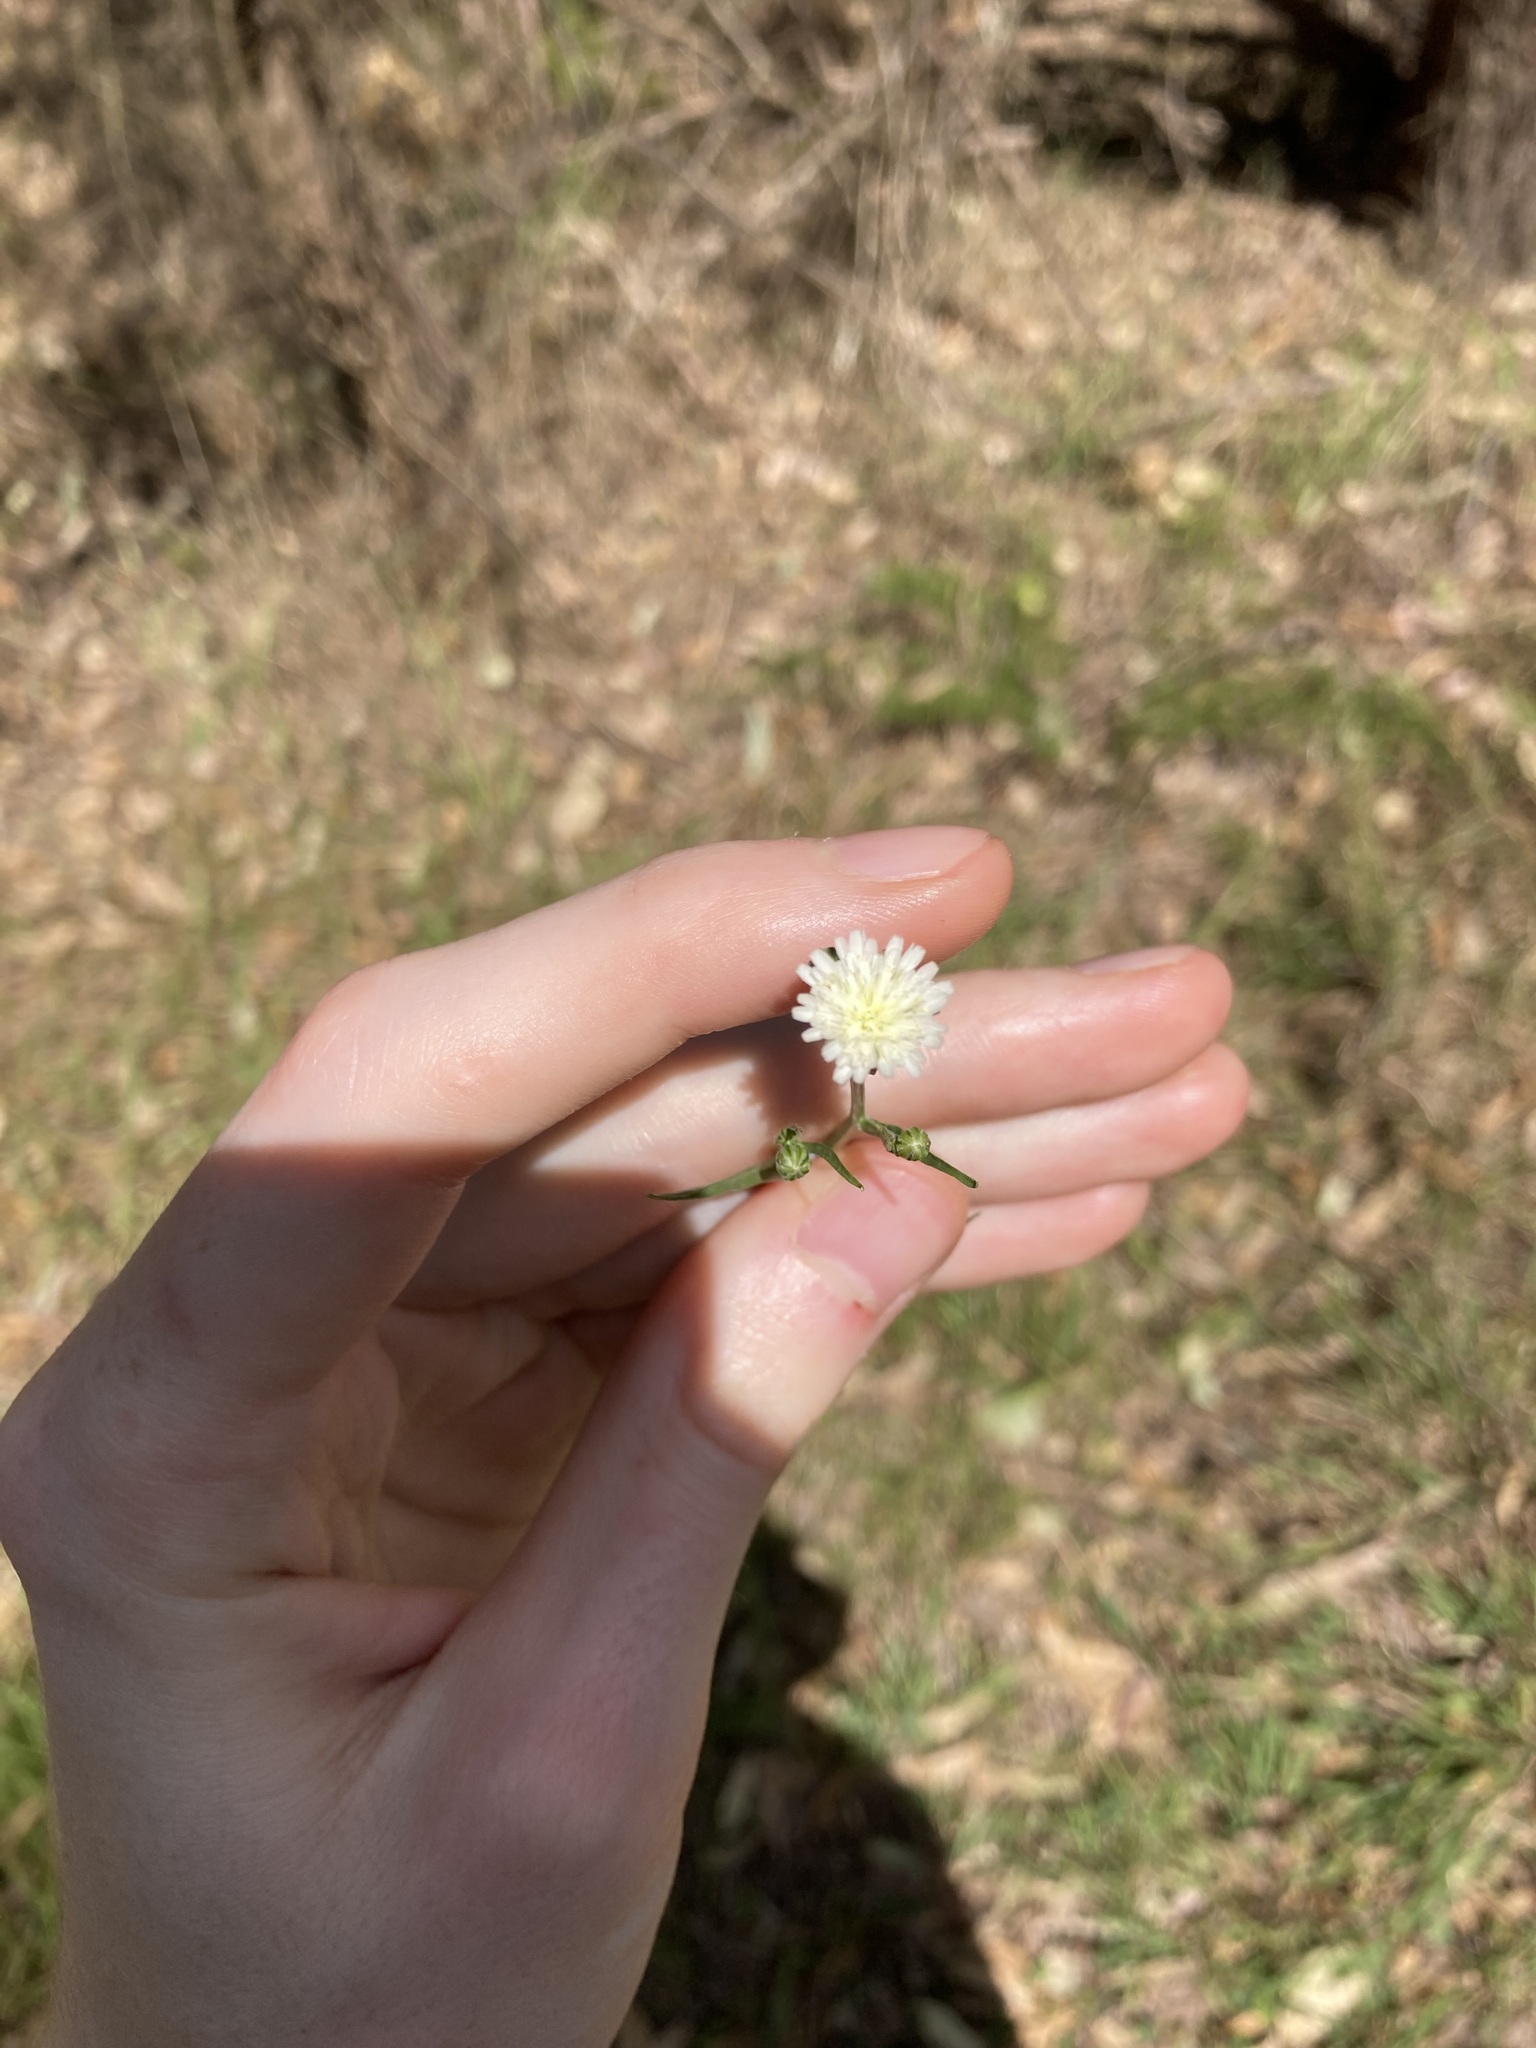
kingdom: Plantae
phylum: Tracheophyta
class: Magnoliopsida
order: Asterales
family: Asteraceae
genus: Hypochaeris
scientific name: Hypochaeris albiflora
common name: White flatweed
